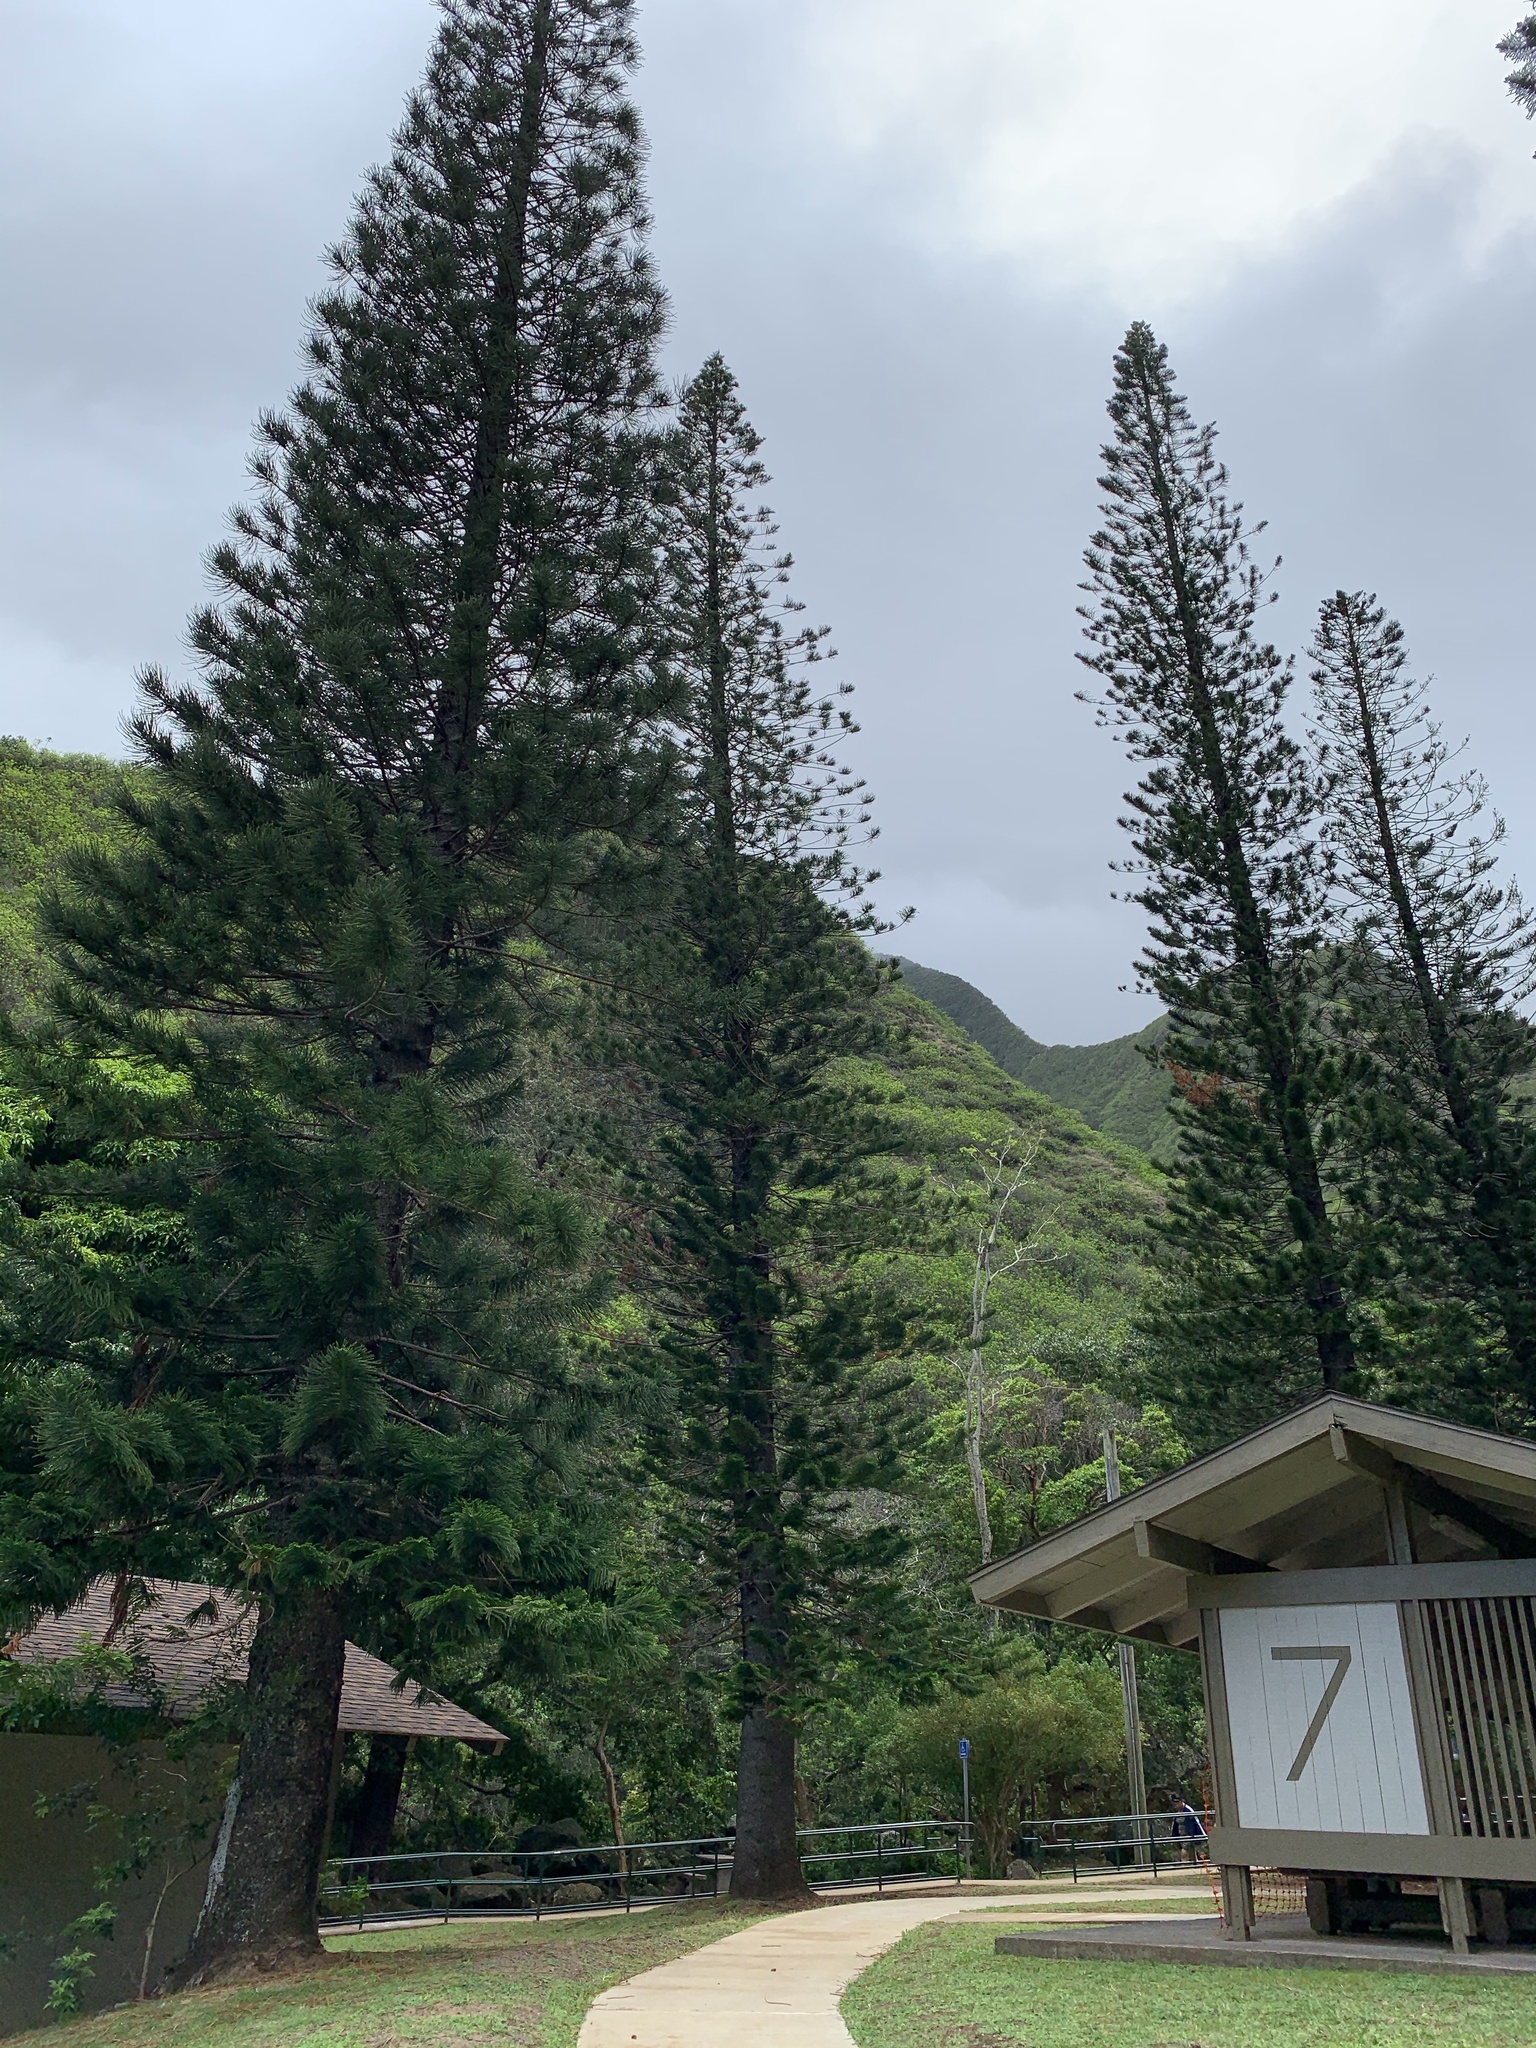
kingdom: Plantae
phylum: Tracheophyta
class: Pinopsida
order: Pinales
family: Araucariaceae
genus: Araucaria
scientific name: Araucaria columnaris
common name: Coral reef araucaria
